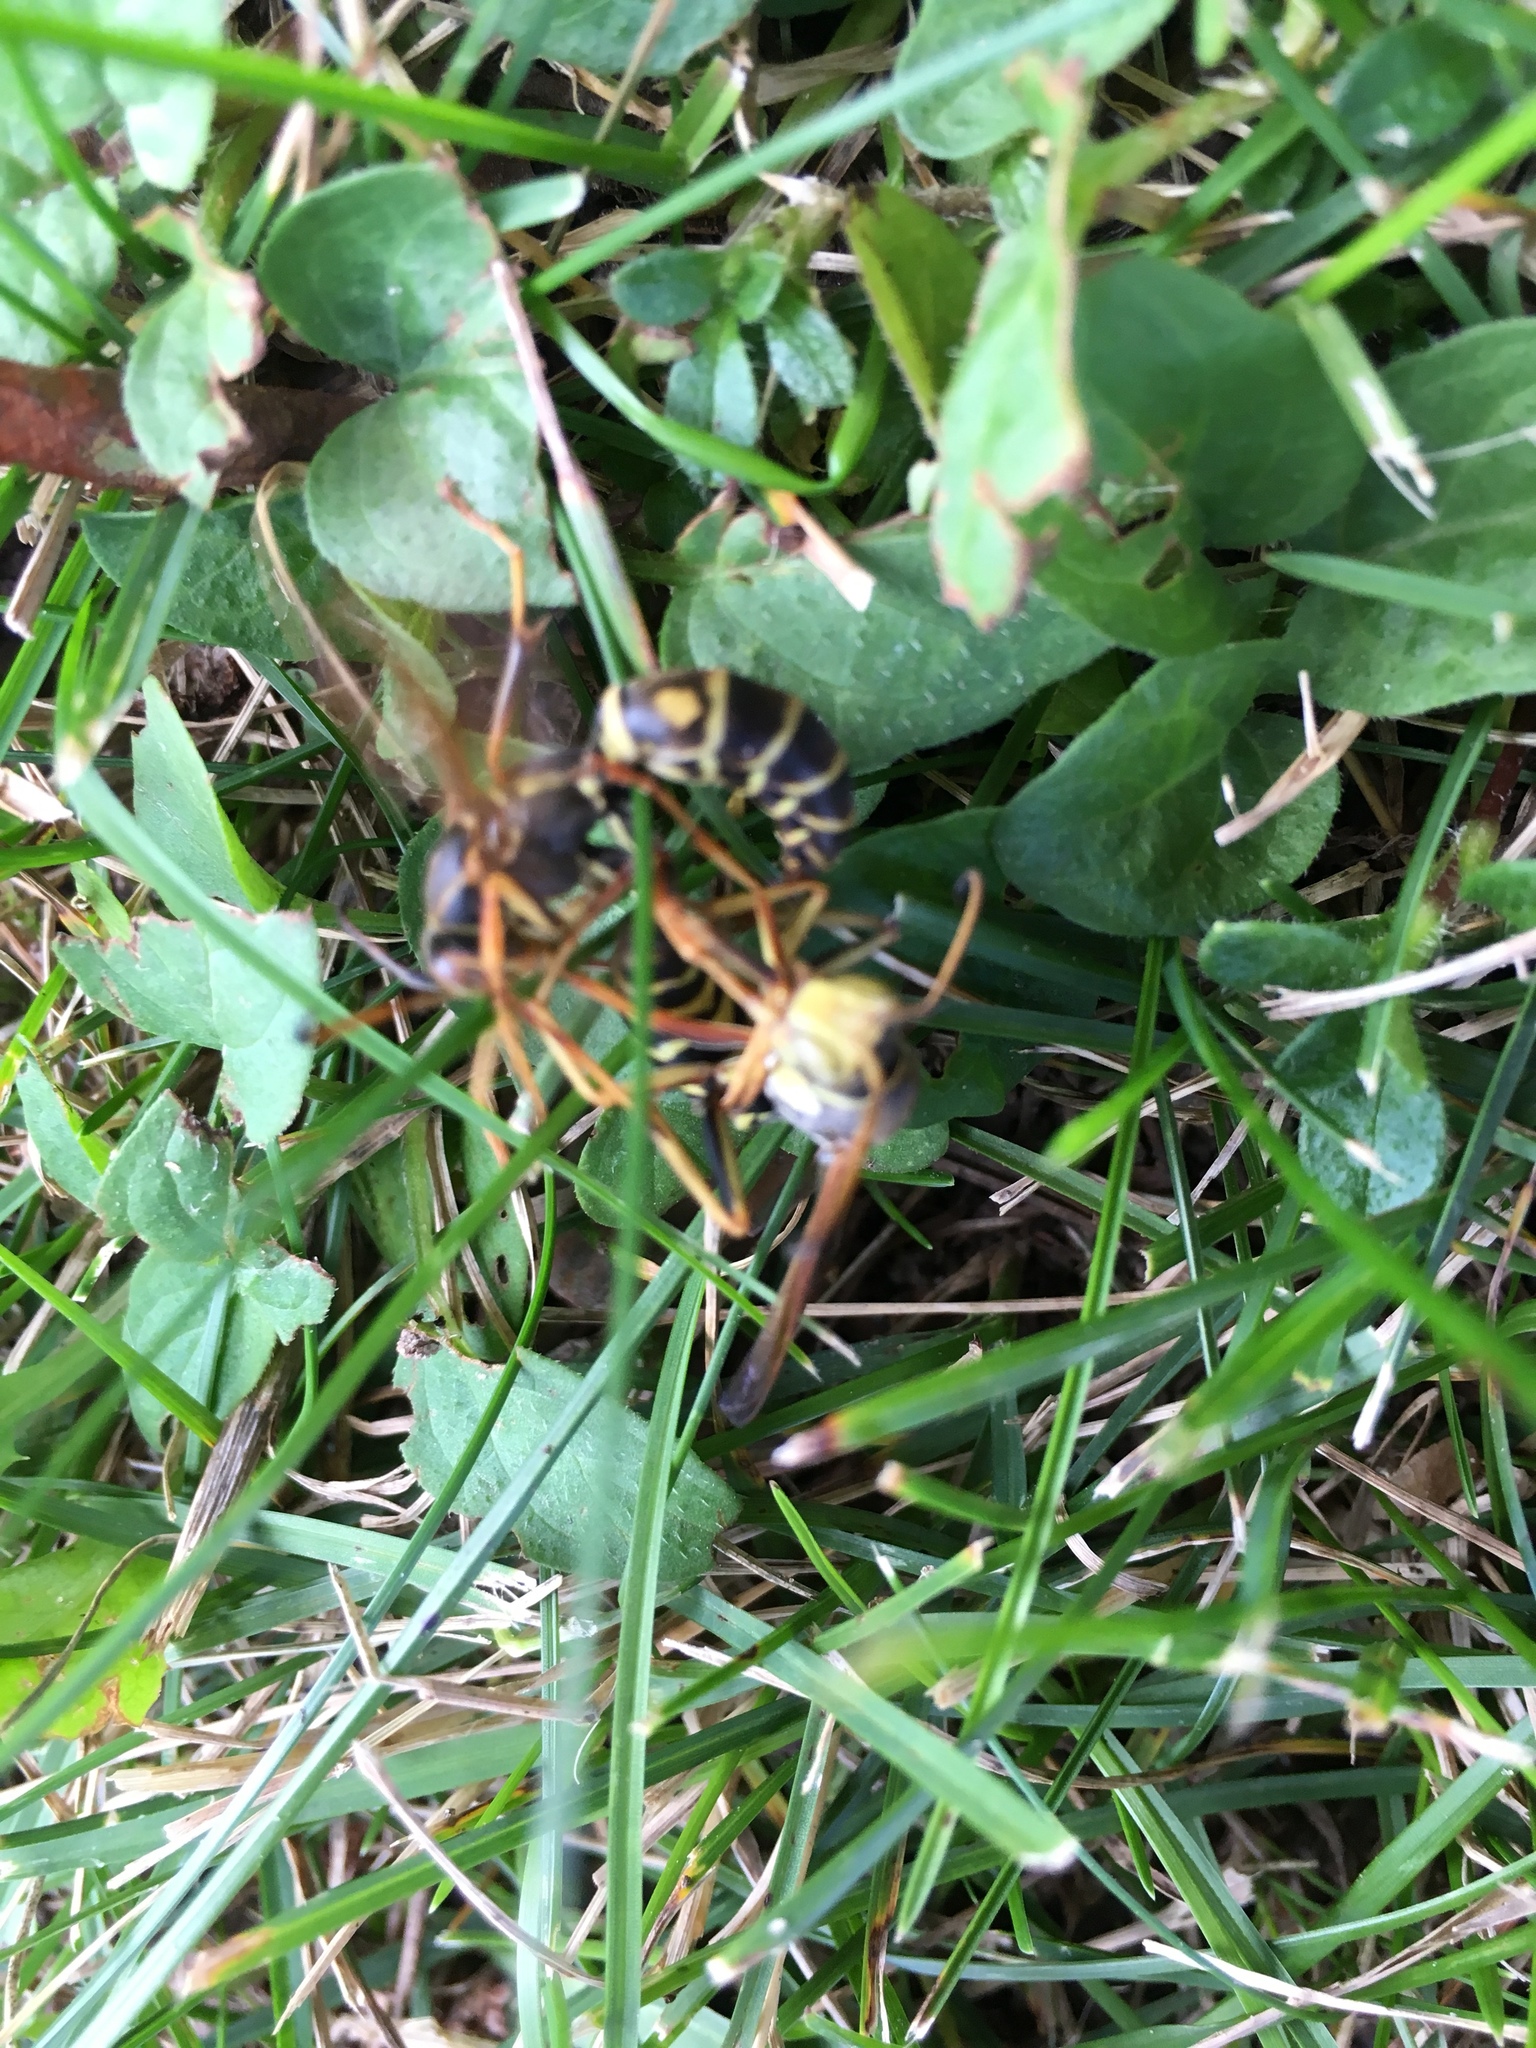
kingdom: Animalia
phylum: Arthropoda
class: Insecta
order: Hymenoptera
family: Eumenidae
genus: Polistes
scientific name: Polistes fuscatus
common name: Dark paper wasp
